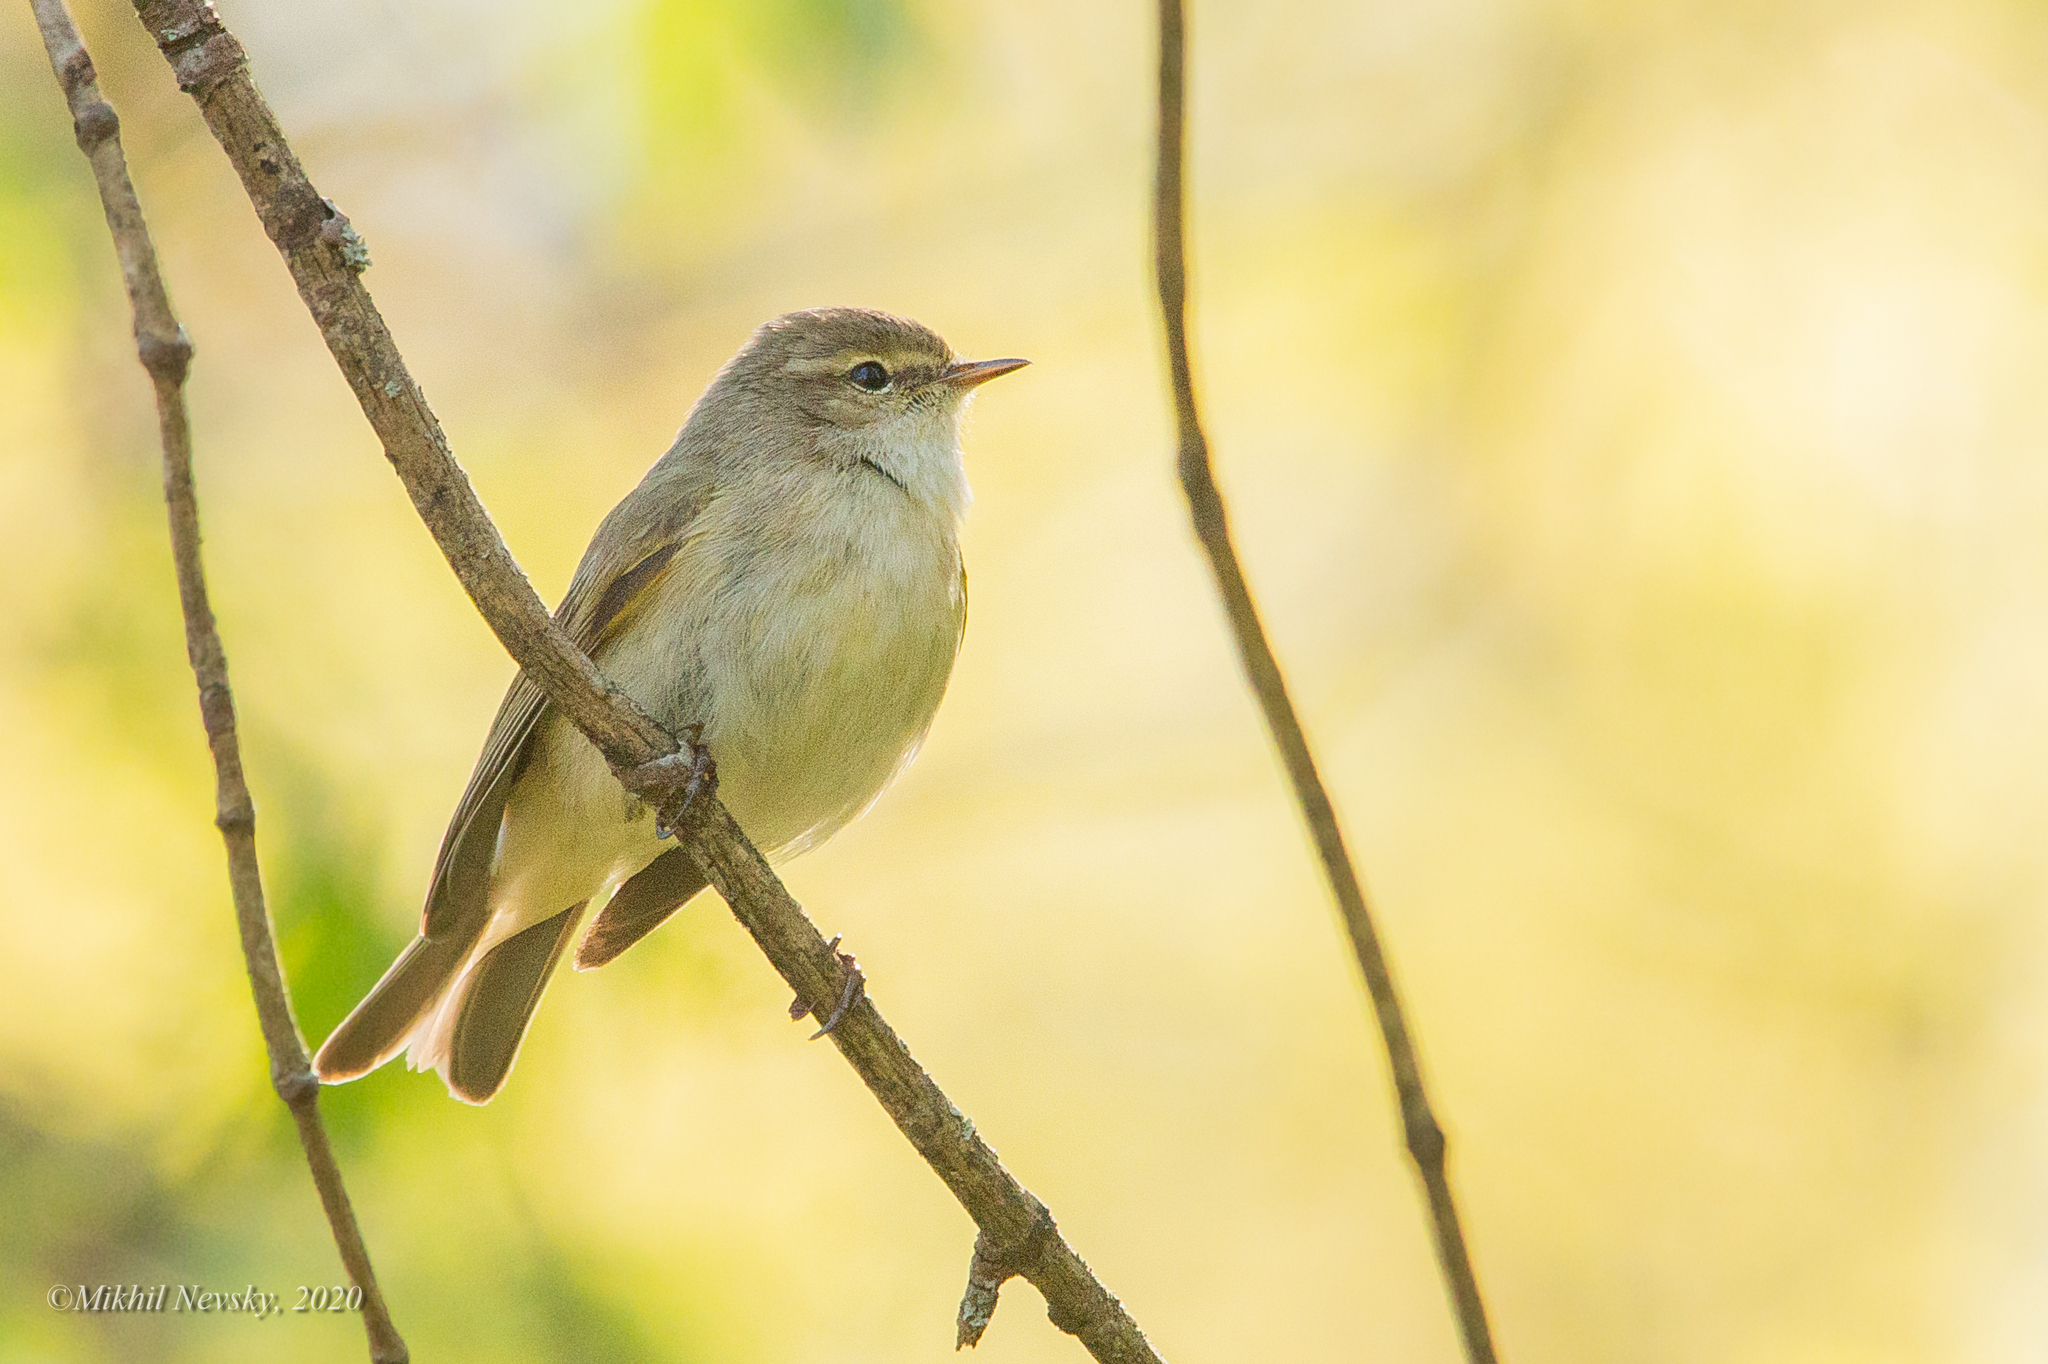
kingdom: Animalia
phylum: Chordata
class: Aves
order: Passeriformes
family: Phylloscopidae
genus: Phylloscopus
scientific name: Phylloscopus collybita
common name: Common chiffchaff
